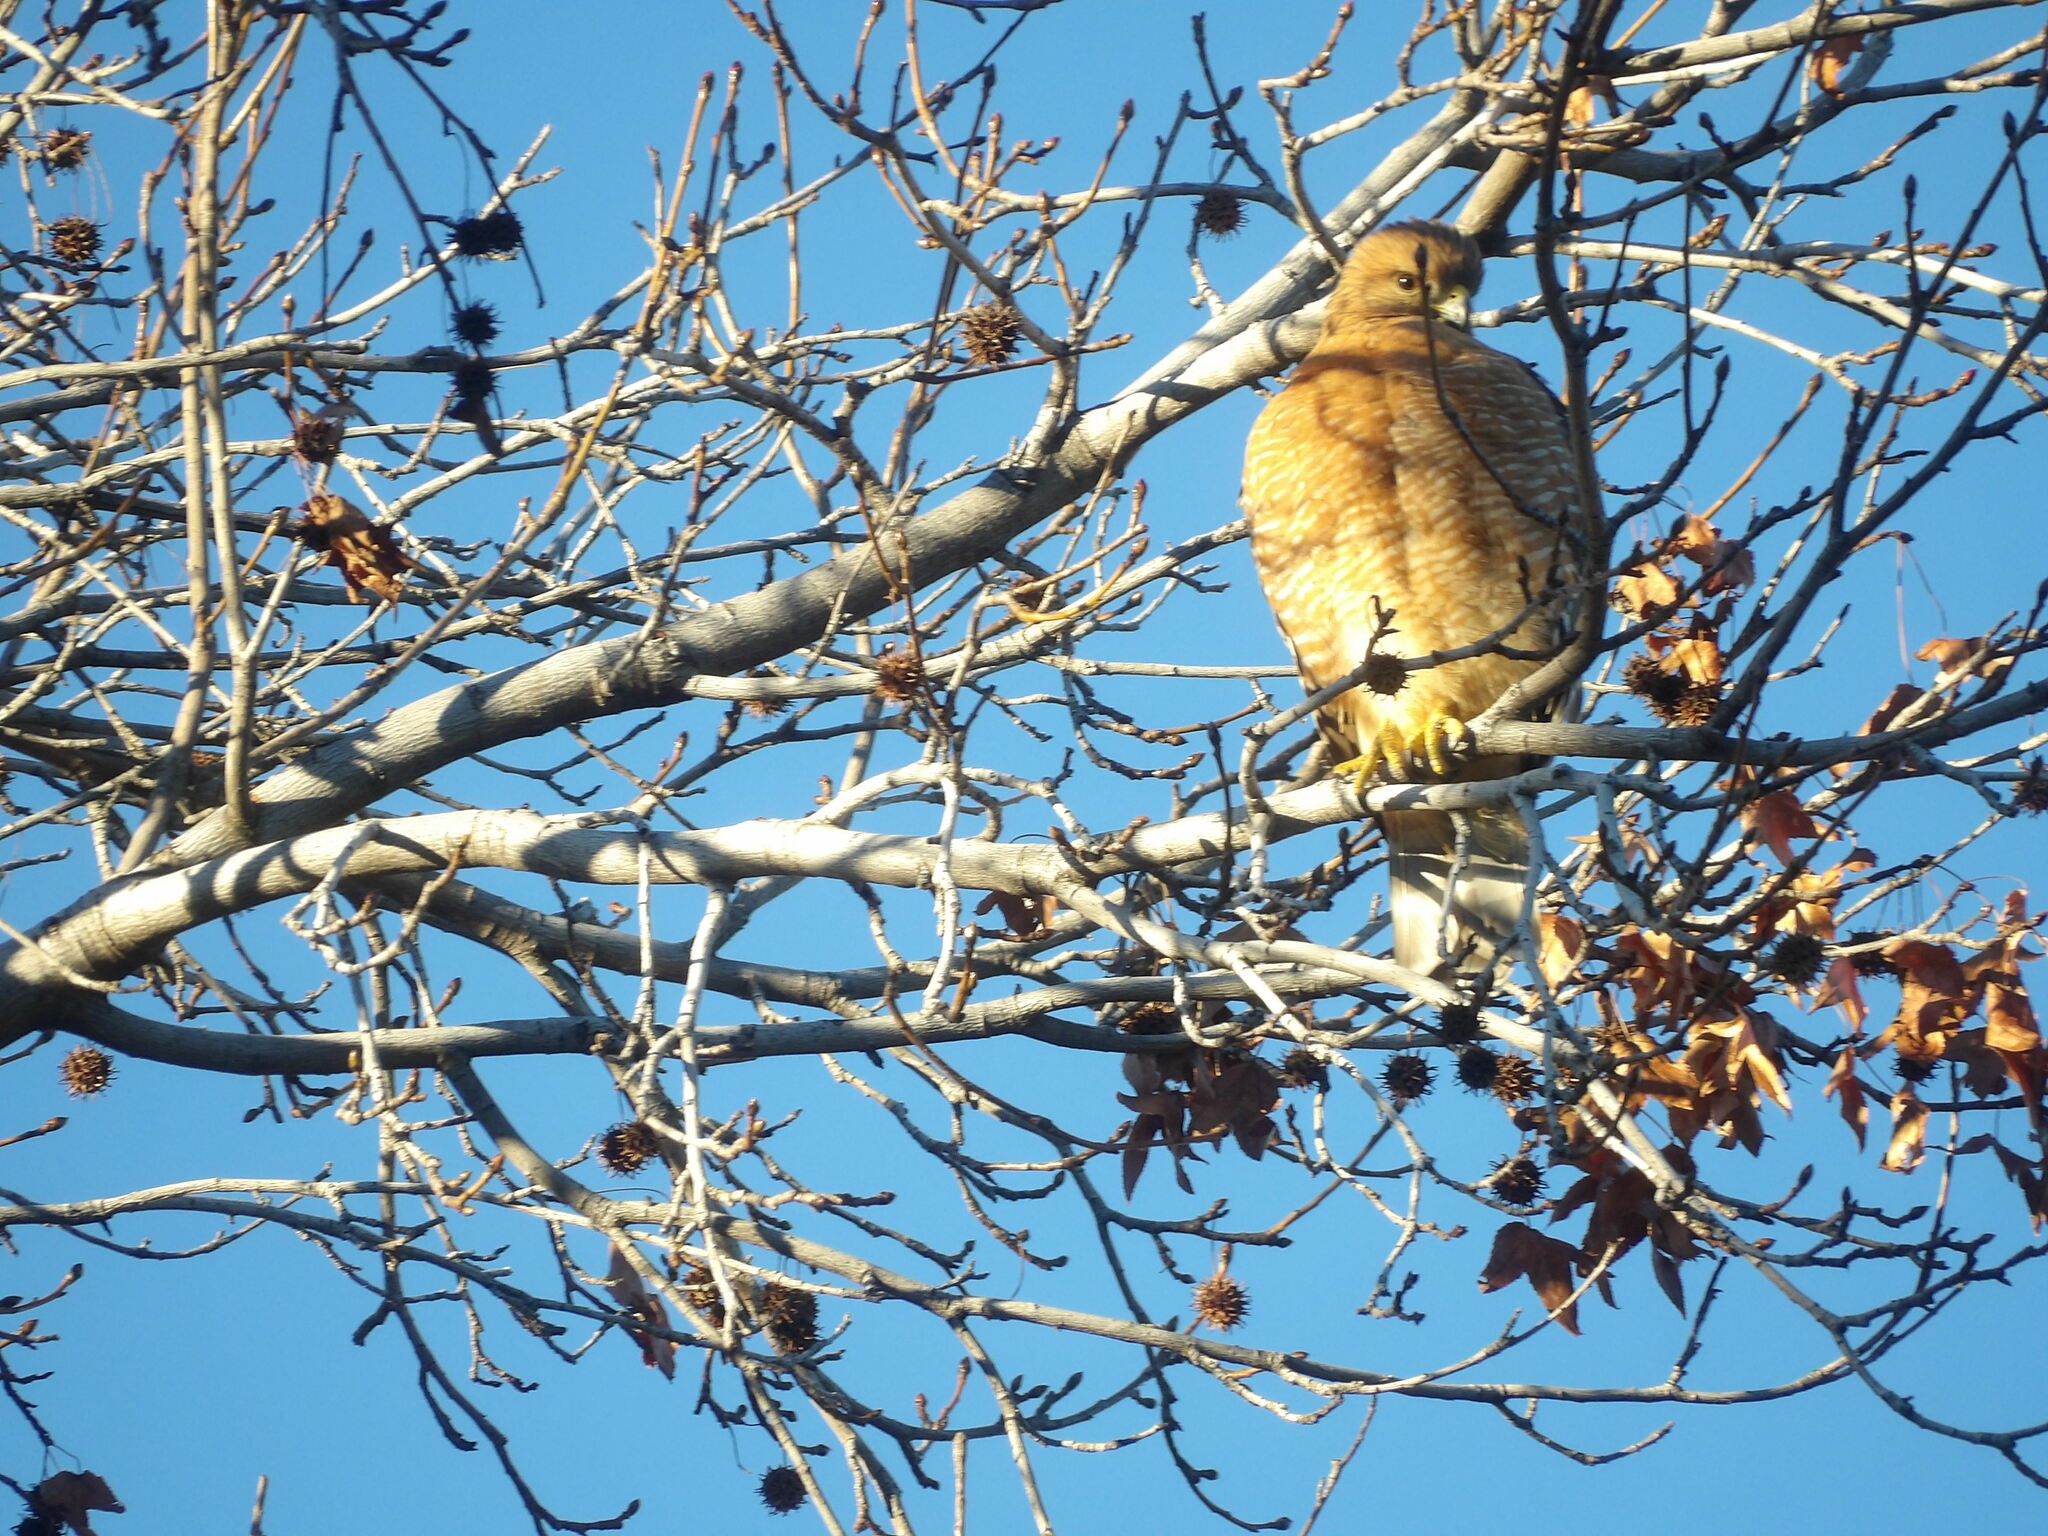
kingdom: Animalia
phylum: Chordata
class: Aves
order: Accipitriformes
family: Accipitridae
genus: Buteo
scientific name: Buteo lineatus
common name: Red-shouldered hawk
